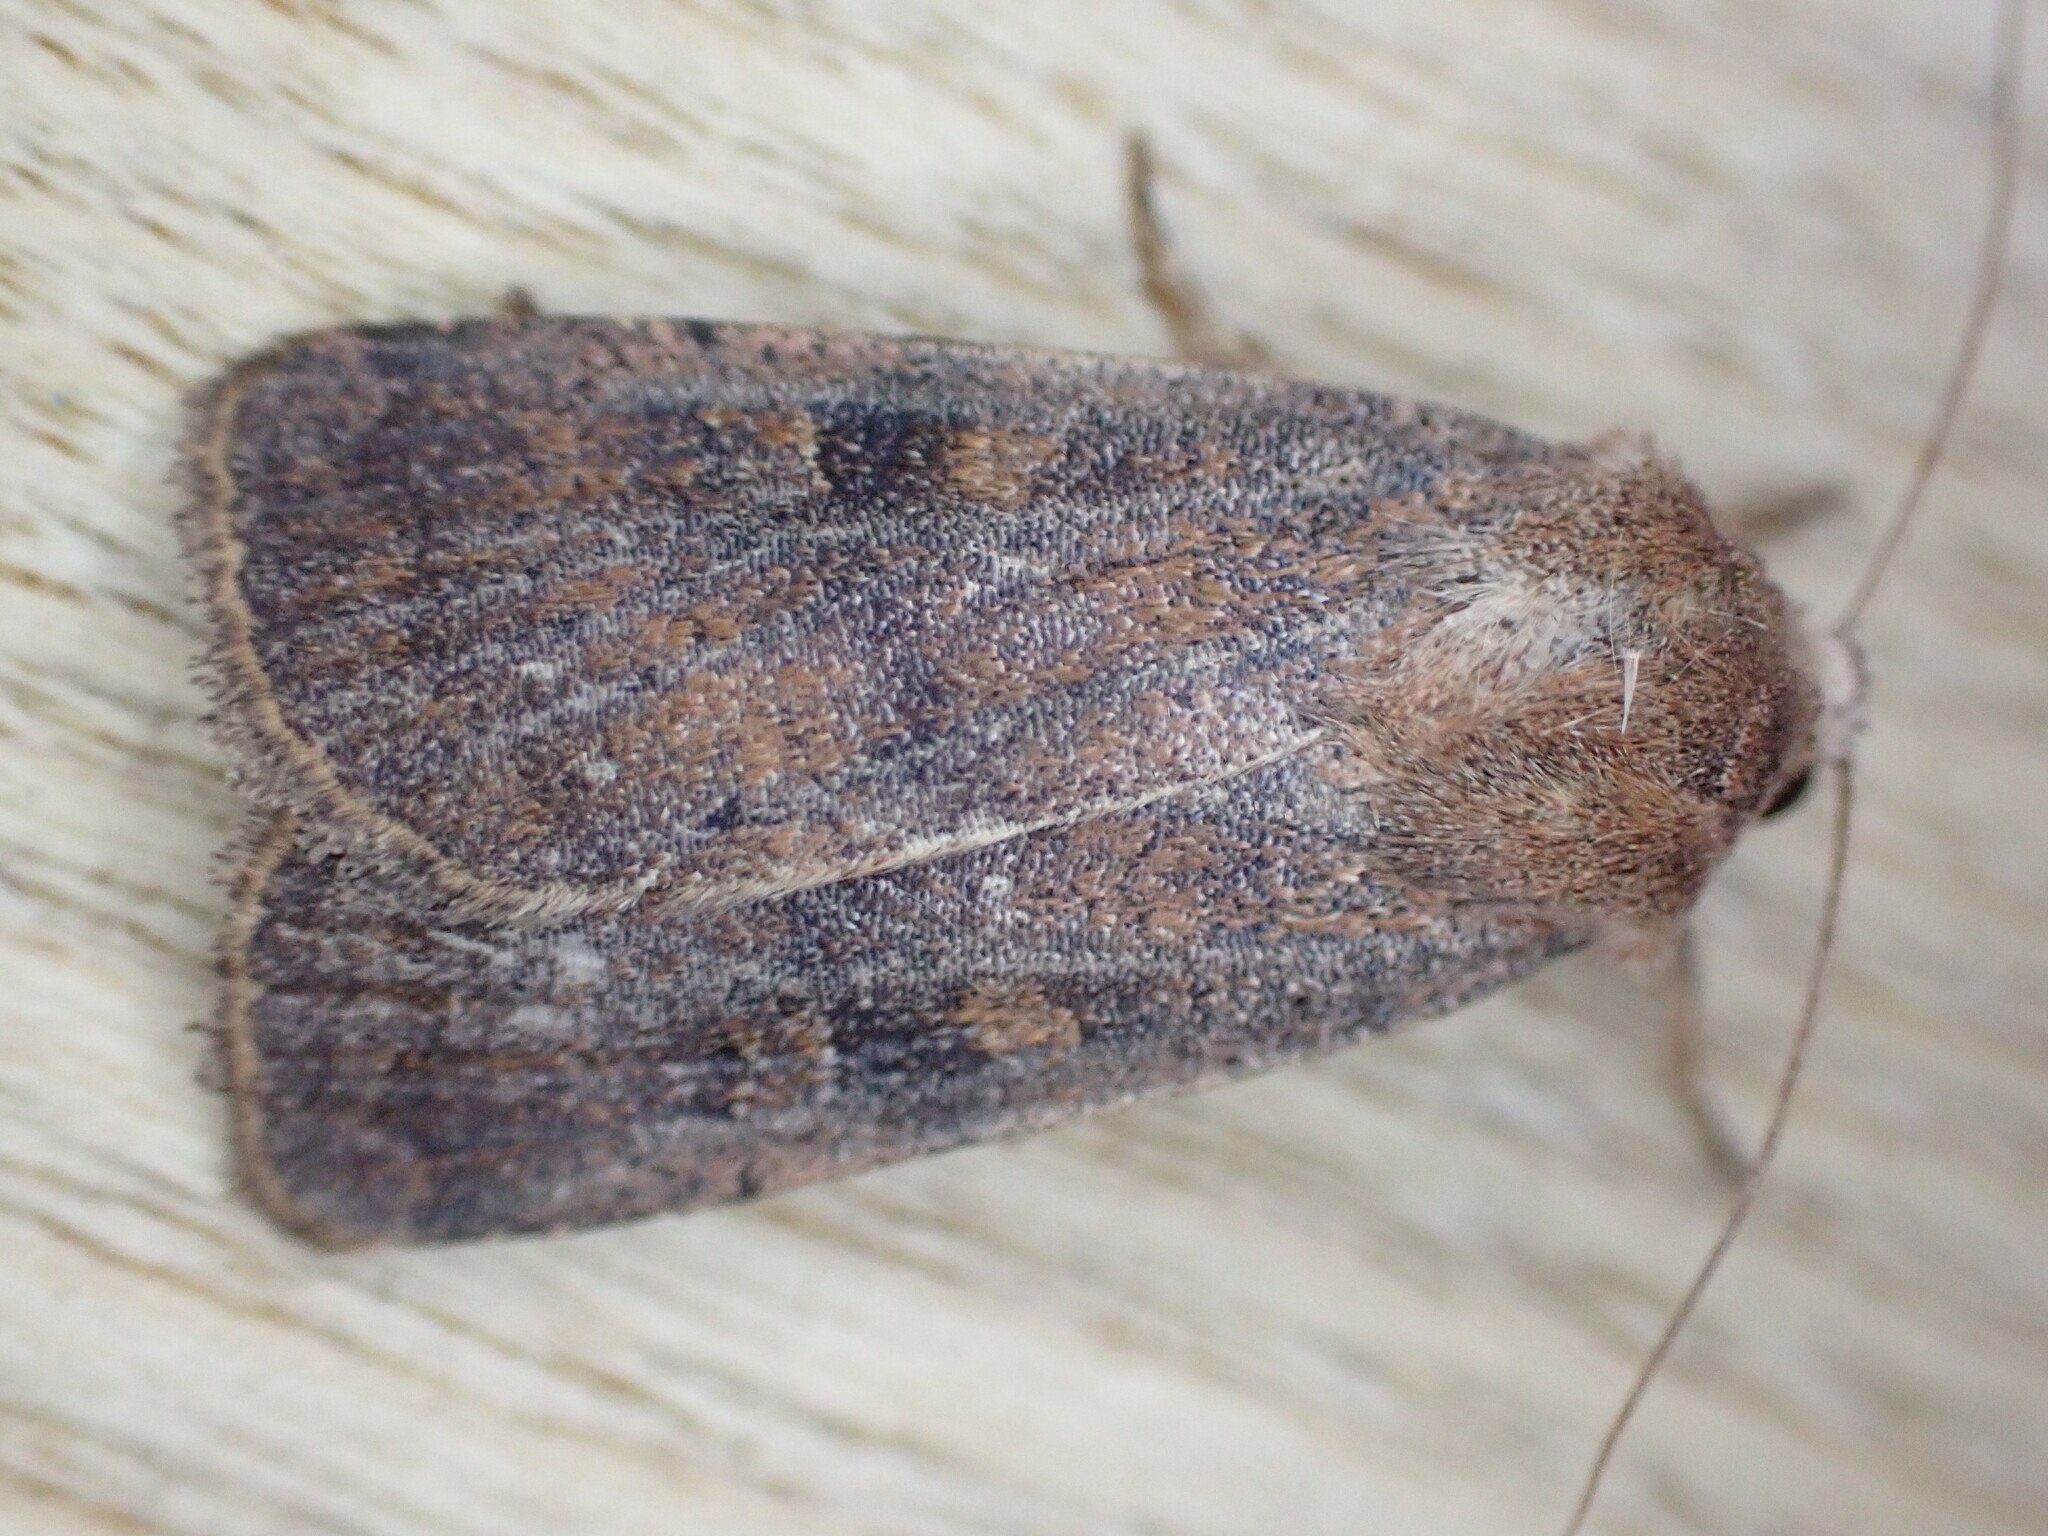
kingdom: Animalia
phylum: Arthropoda
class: Insecta
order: Lepidoptera
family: Noctuidae
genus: Xestia
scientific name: Xestia xanthographa
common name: Square-spot rustic
